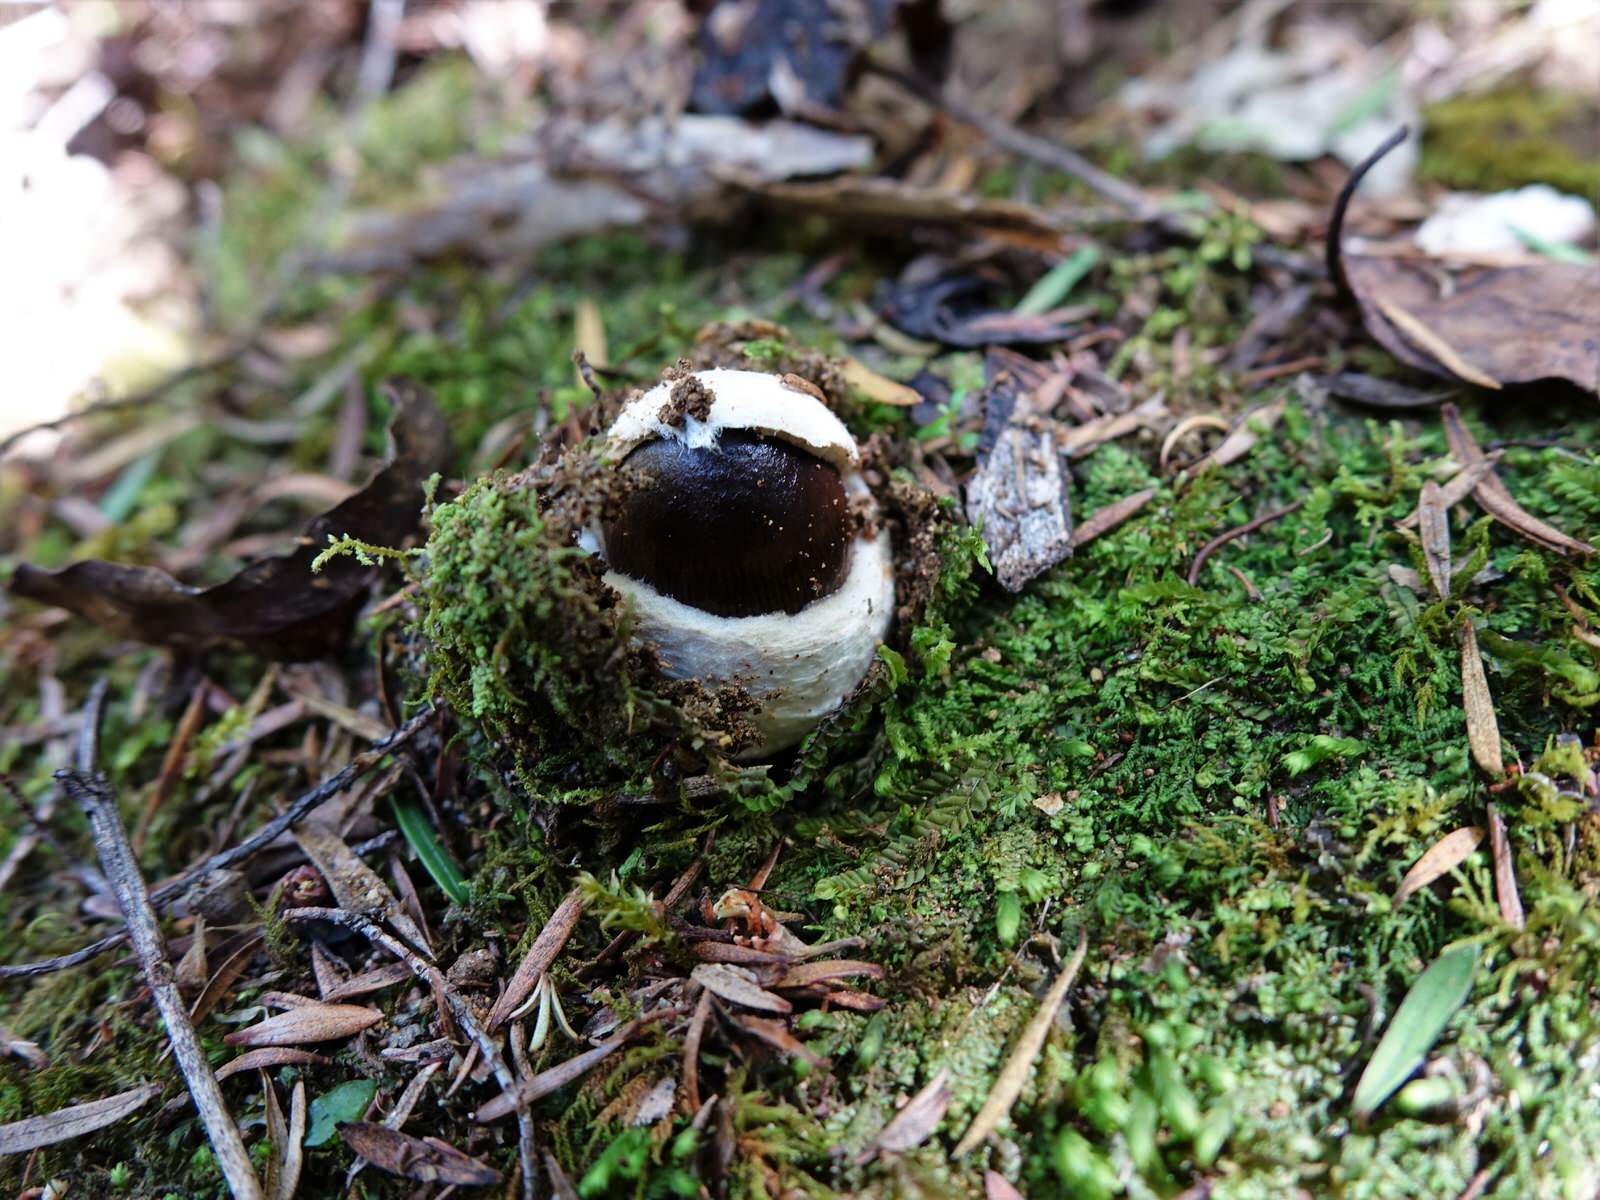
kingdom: Fungi
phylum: Basidiomycota
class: Agaricomycetes
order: Agaricales
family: Amanitaceae
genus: Amanita
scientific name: Amanita pekeoides
